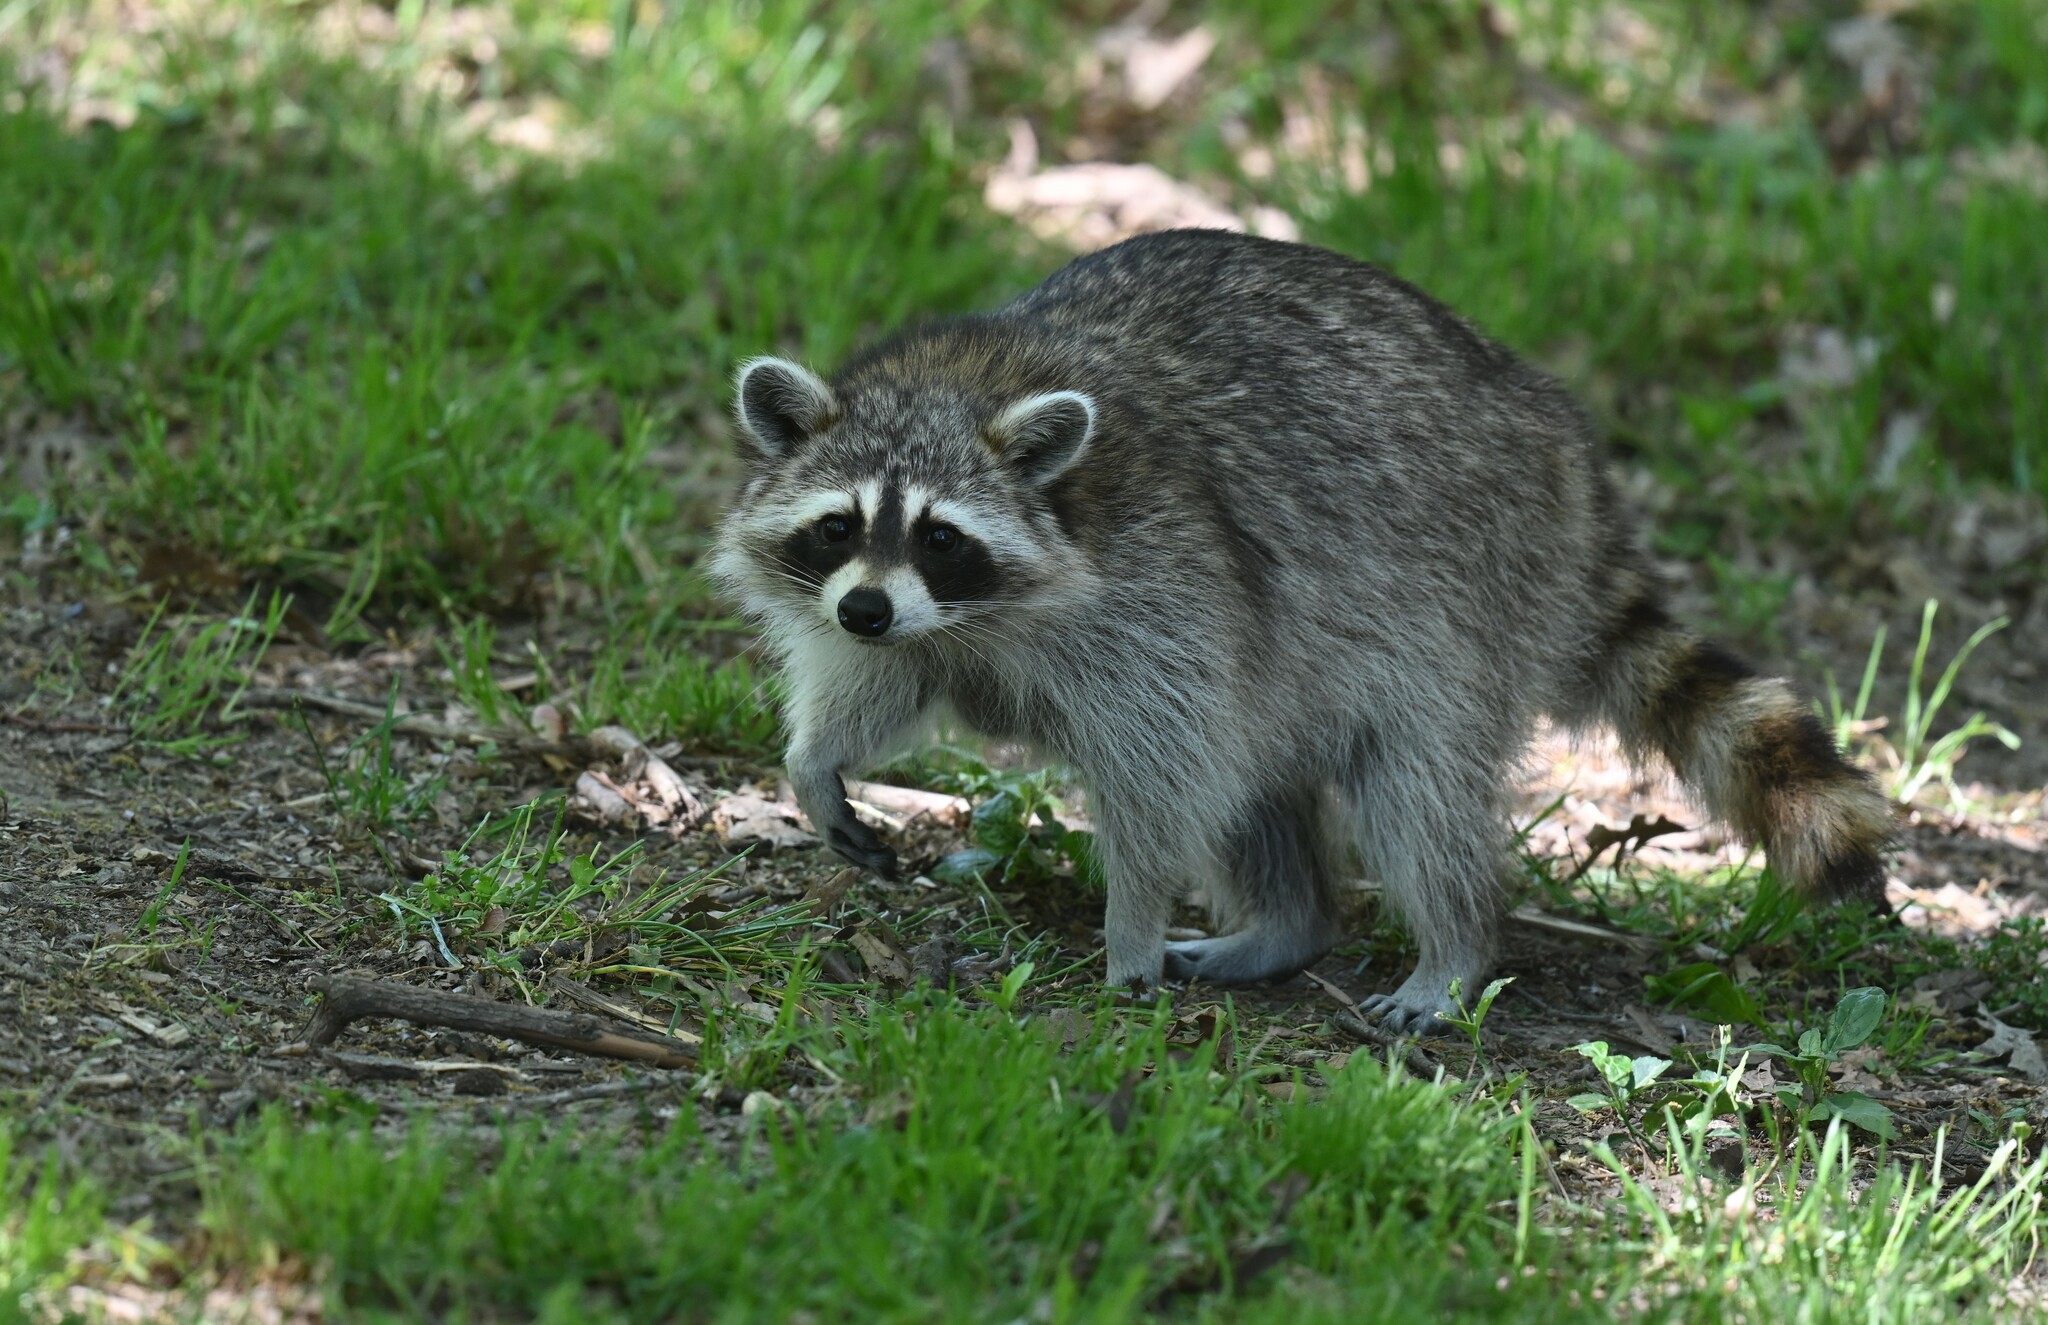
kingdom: Animalia
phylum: Chordata
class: Mammalia
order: Carnivora
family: Procyonidae
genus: Procyon
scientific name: Procyon lotor
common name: Raccoon
